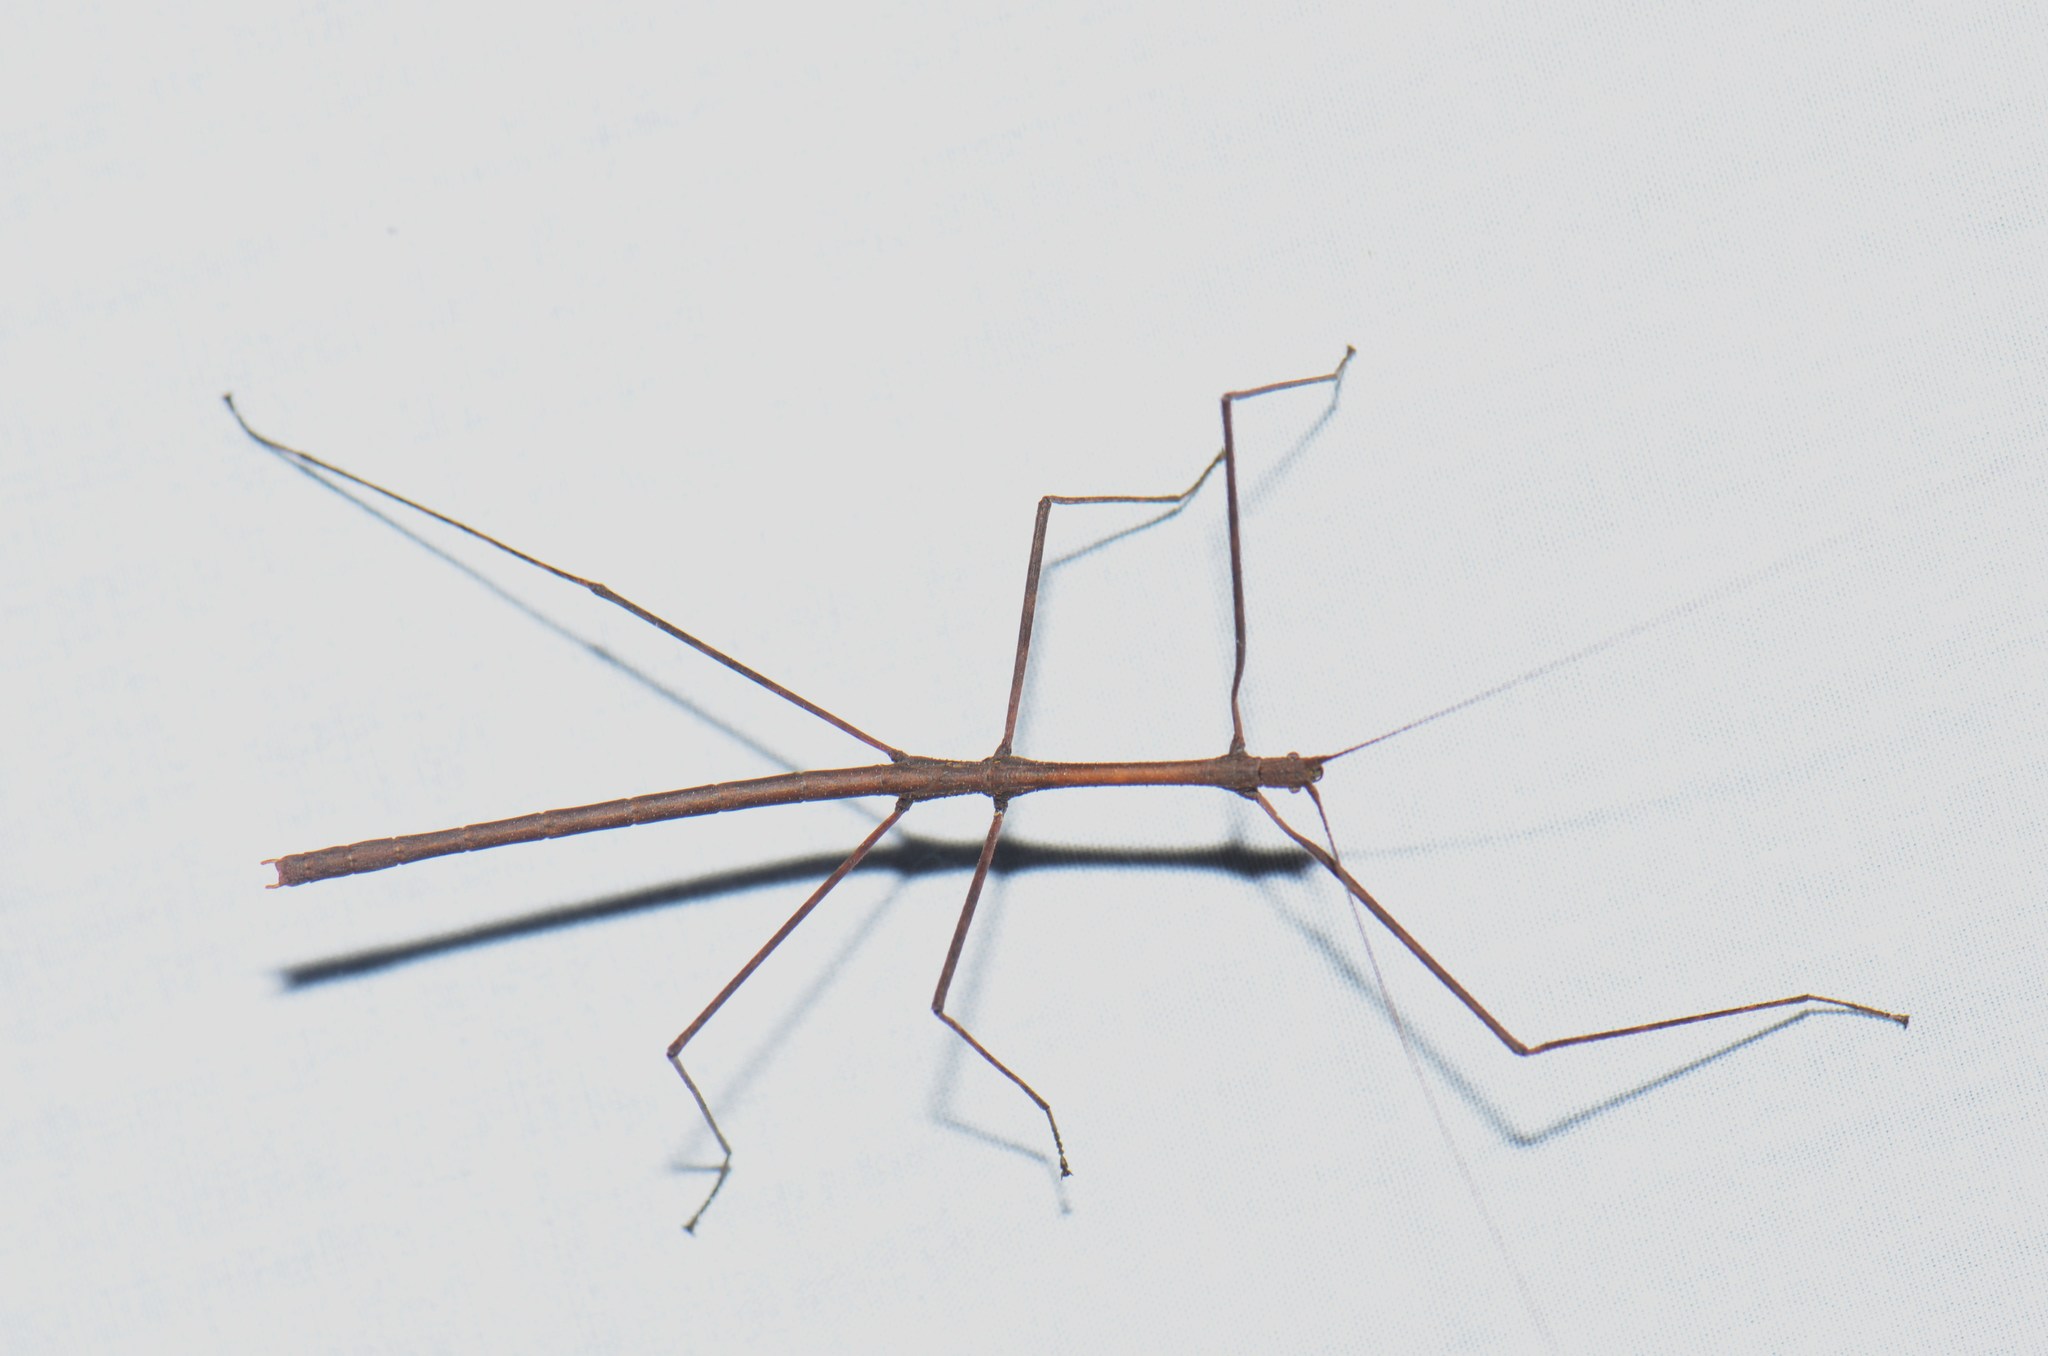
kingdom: Animalia
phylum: Arthropoda
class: Insecta
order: Phasmida
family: Lonchodidae
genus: Acacus
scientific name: Acacus sumatranus
